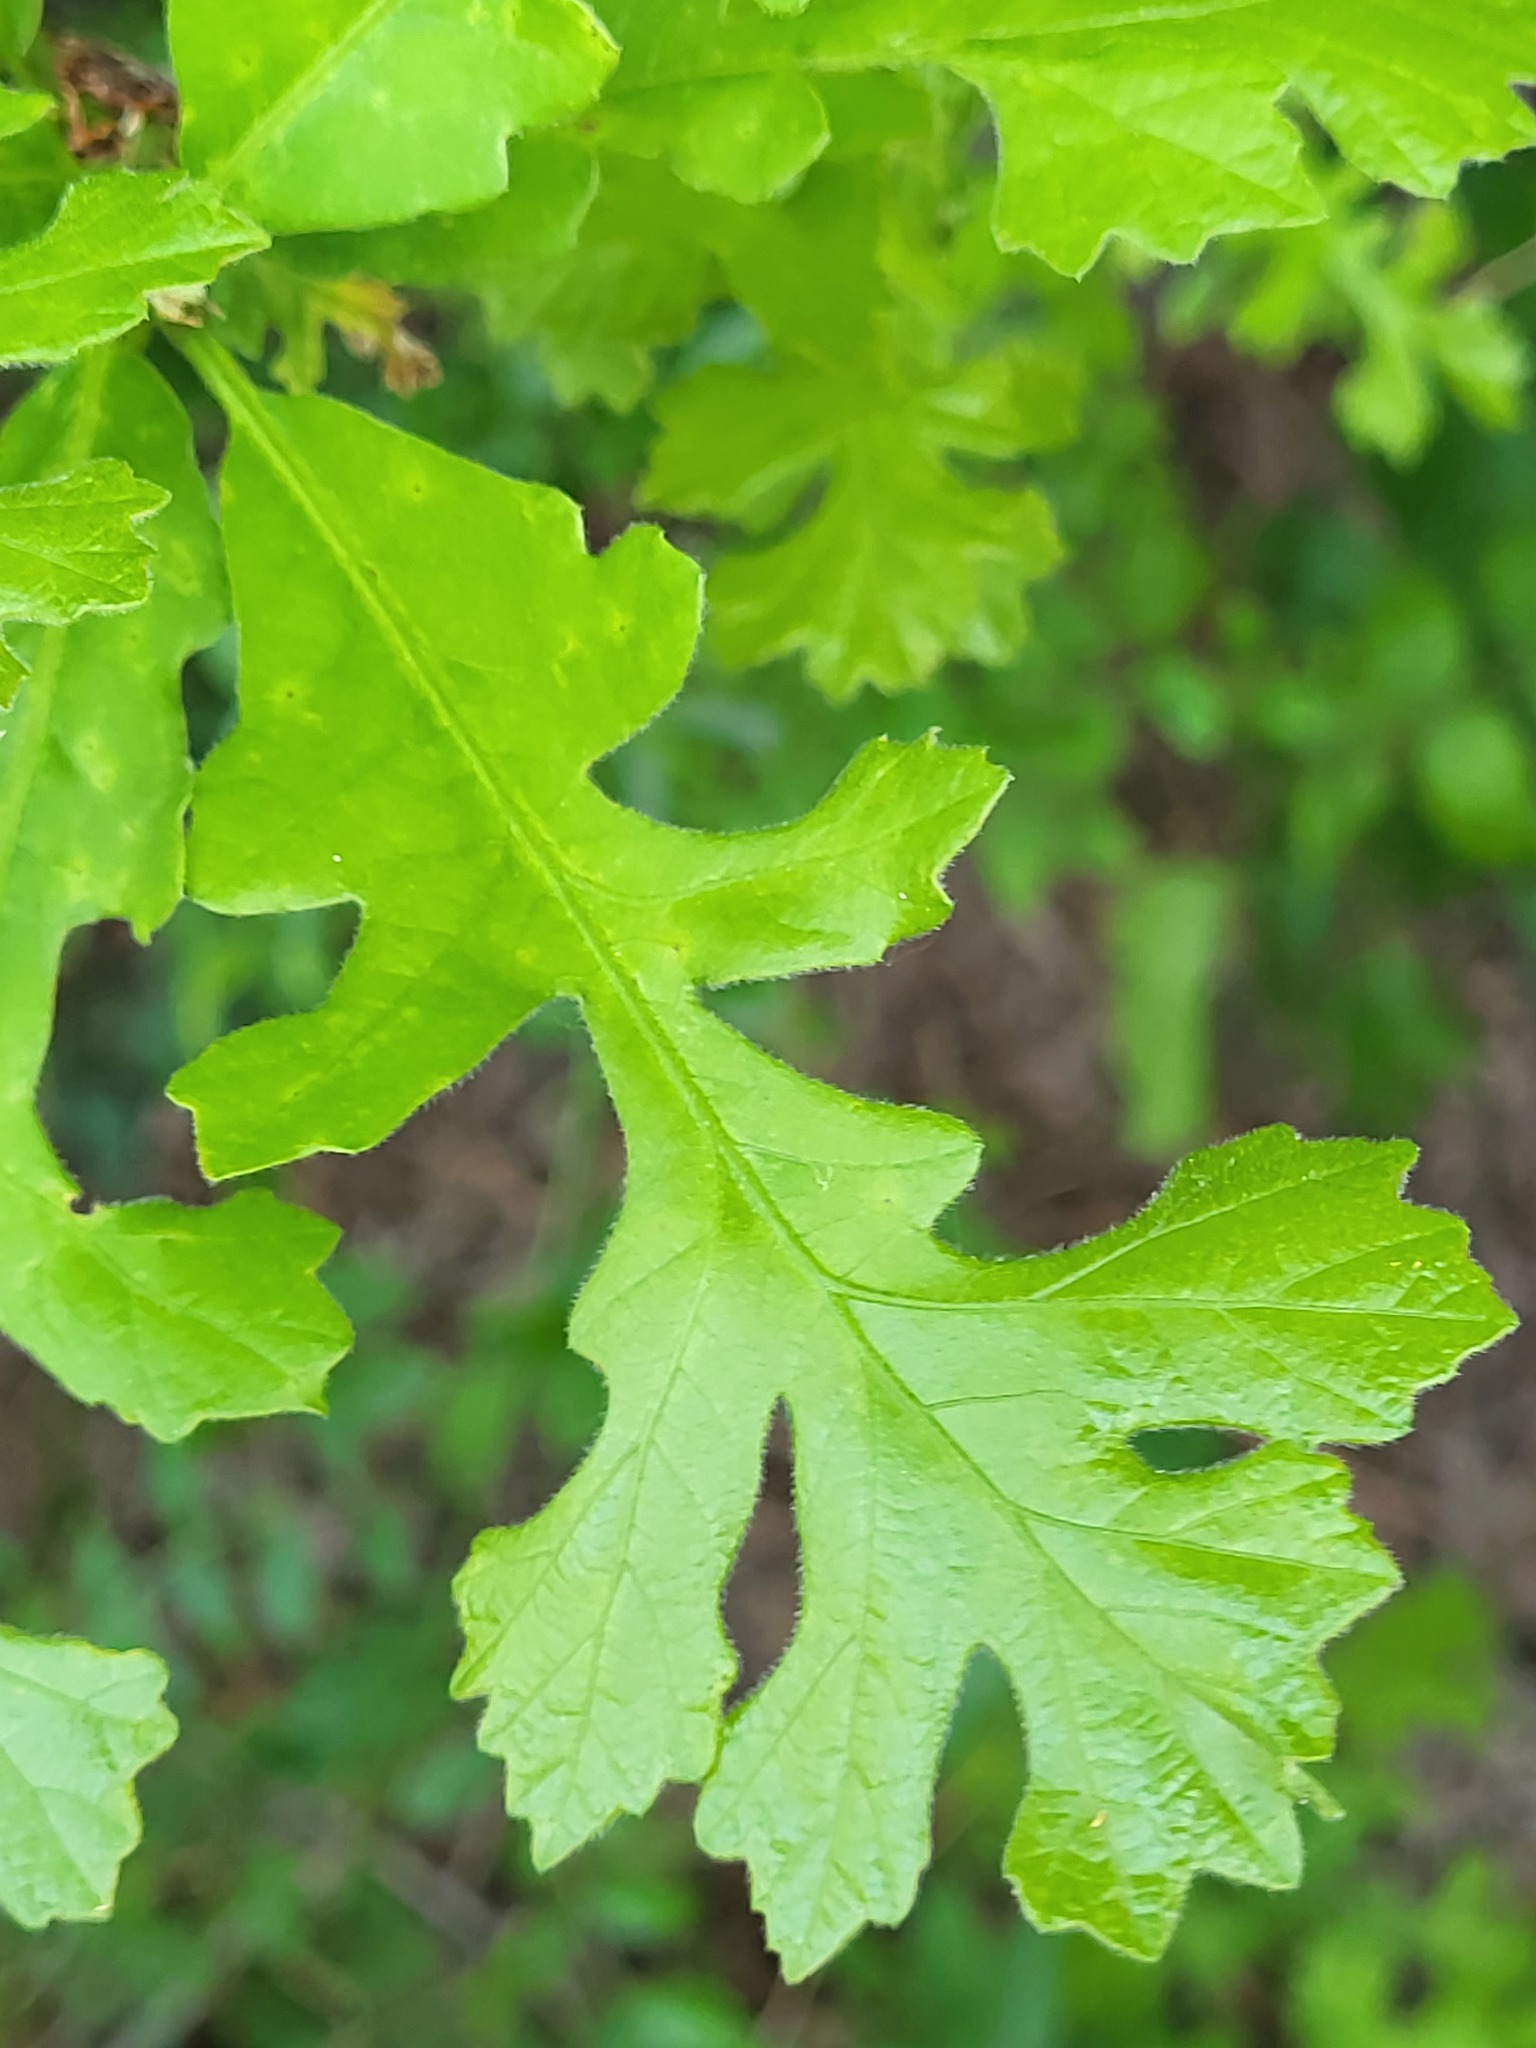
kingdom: Plantae
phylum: Tracheophyta
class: Magnoliopsida
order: Fagales
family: Fagaceae
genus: Quercus
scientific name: Quercus macrocarpa
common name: Bur oak
